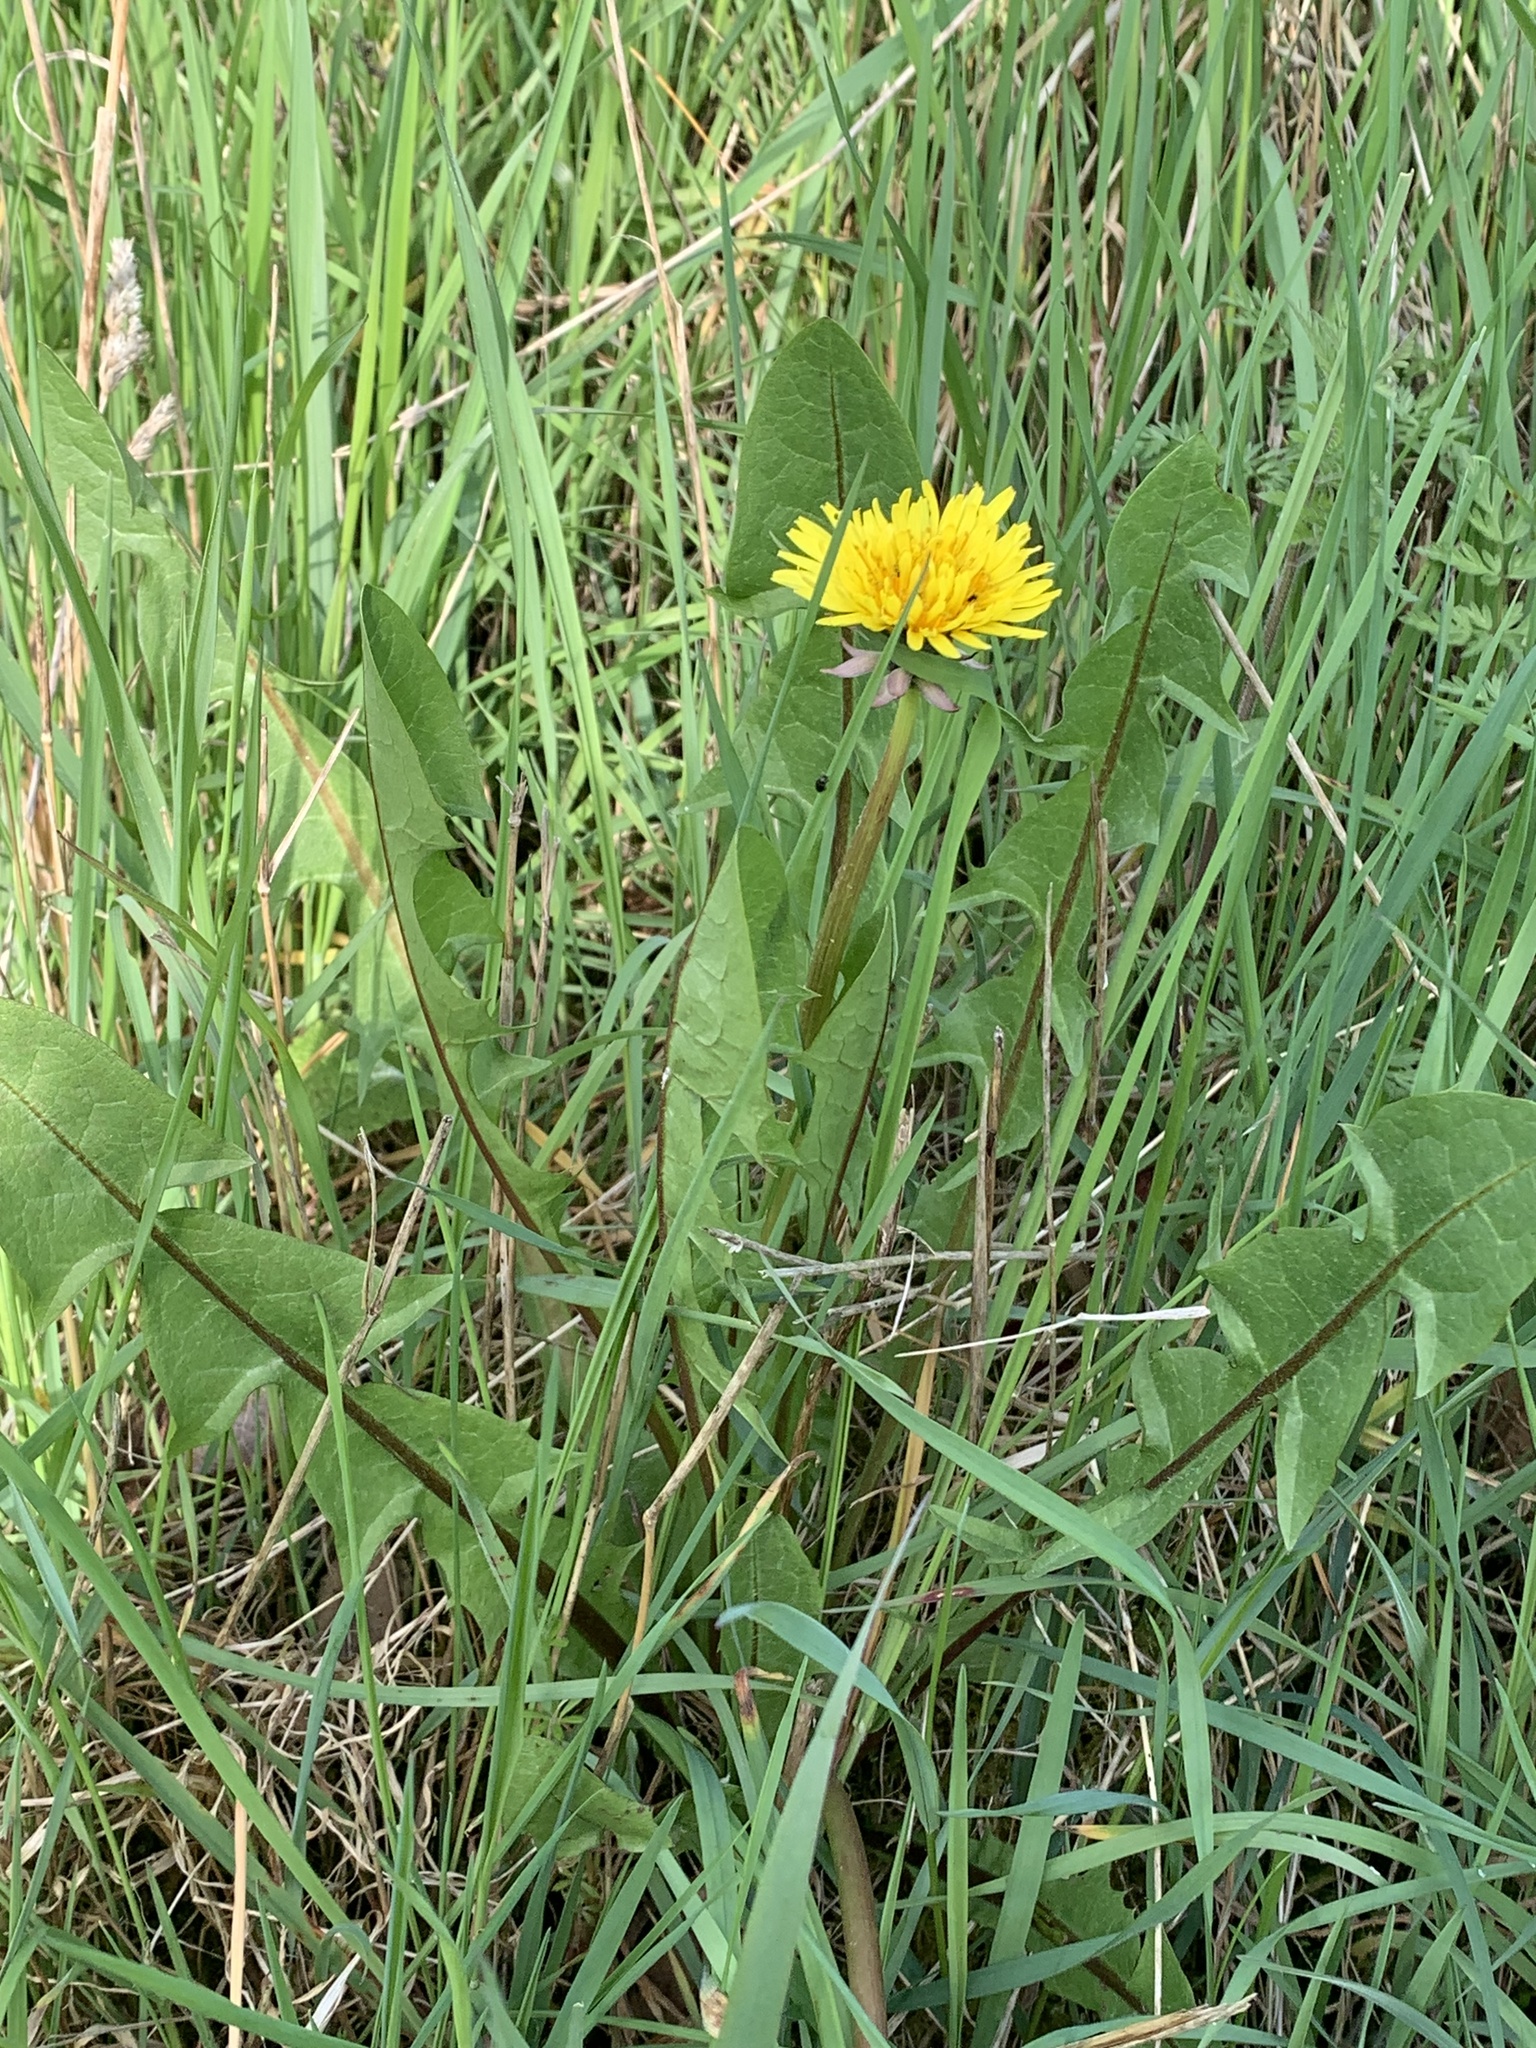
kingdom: Plantae
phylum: Tracheophyta
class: Magnoliopsida
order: Asterales
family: Asteraceae
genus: Taraxacum
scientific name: Taraxacum officinale
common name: Common dandelion
